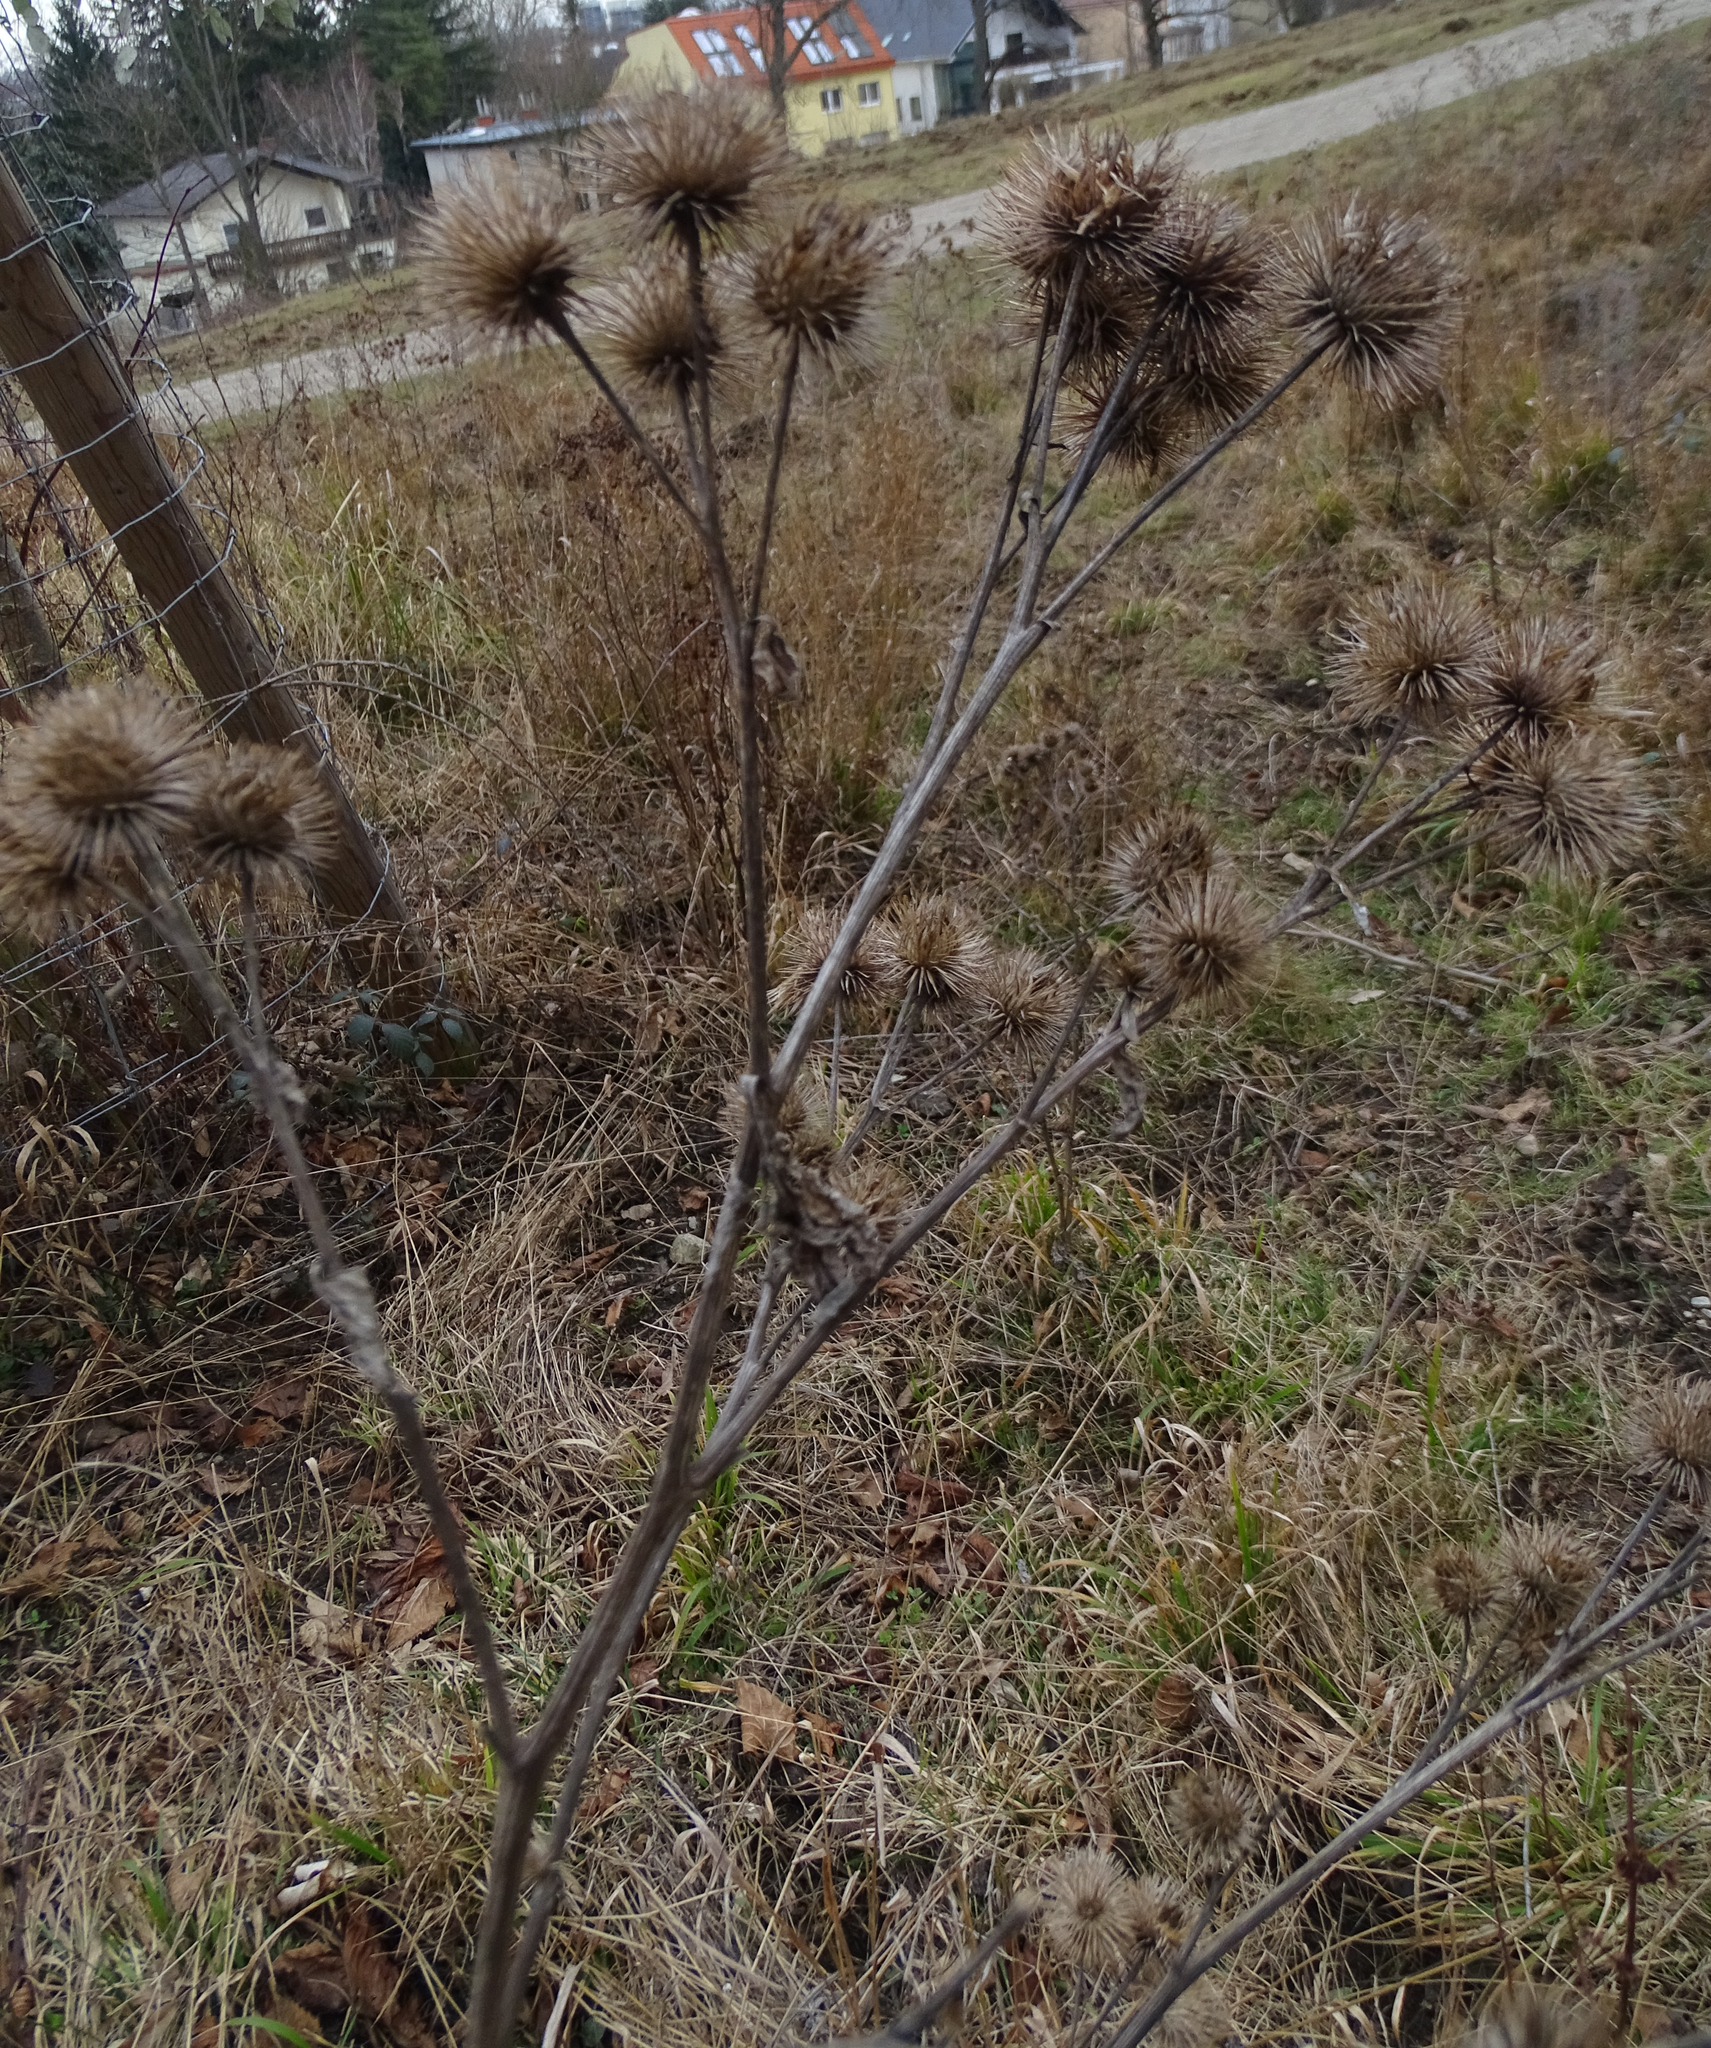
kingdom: Plantae
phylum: Tracheophyta
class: Magnoliopsida
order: Asterales
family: Asteraceae
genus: Arctium
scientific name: Arctium lappa
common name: Greater burdock
